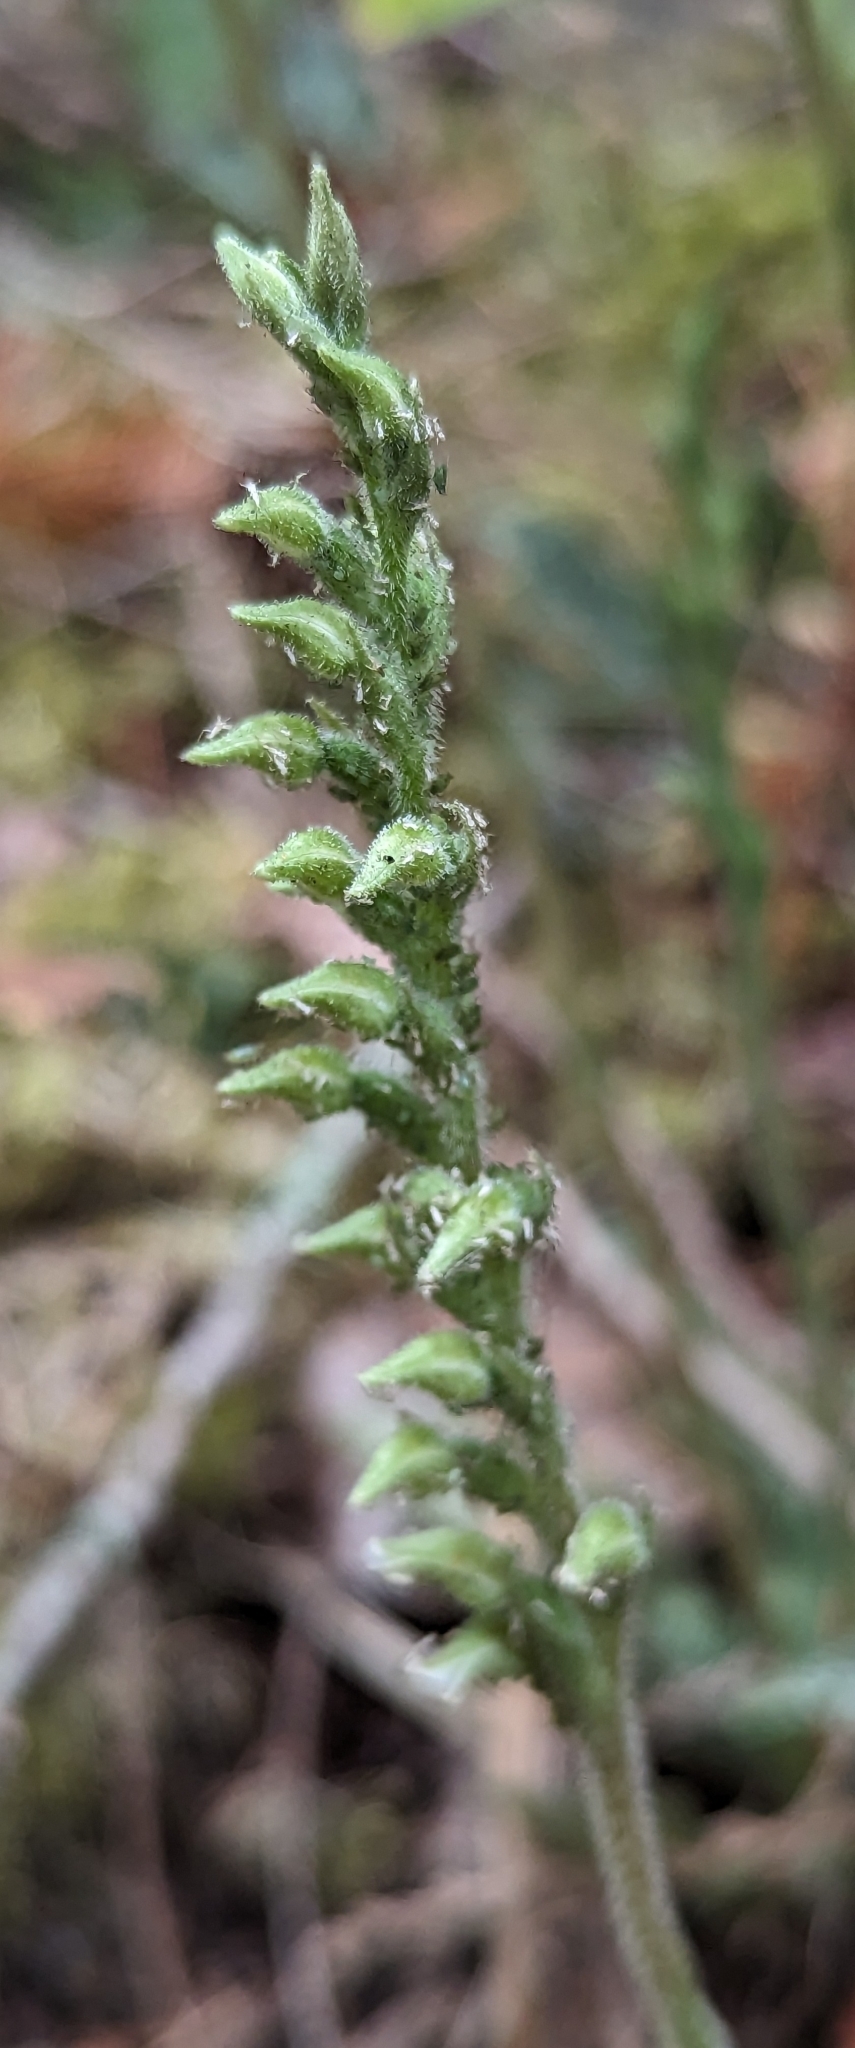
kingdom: Plantae
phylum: Tracheophyta
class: Liliopsida
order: Asparagales
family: Orchidaceae
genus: Goodyera
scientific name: Goodyera oblongifolia
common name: Giant rattlesnake-plantain
